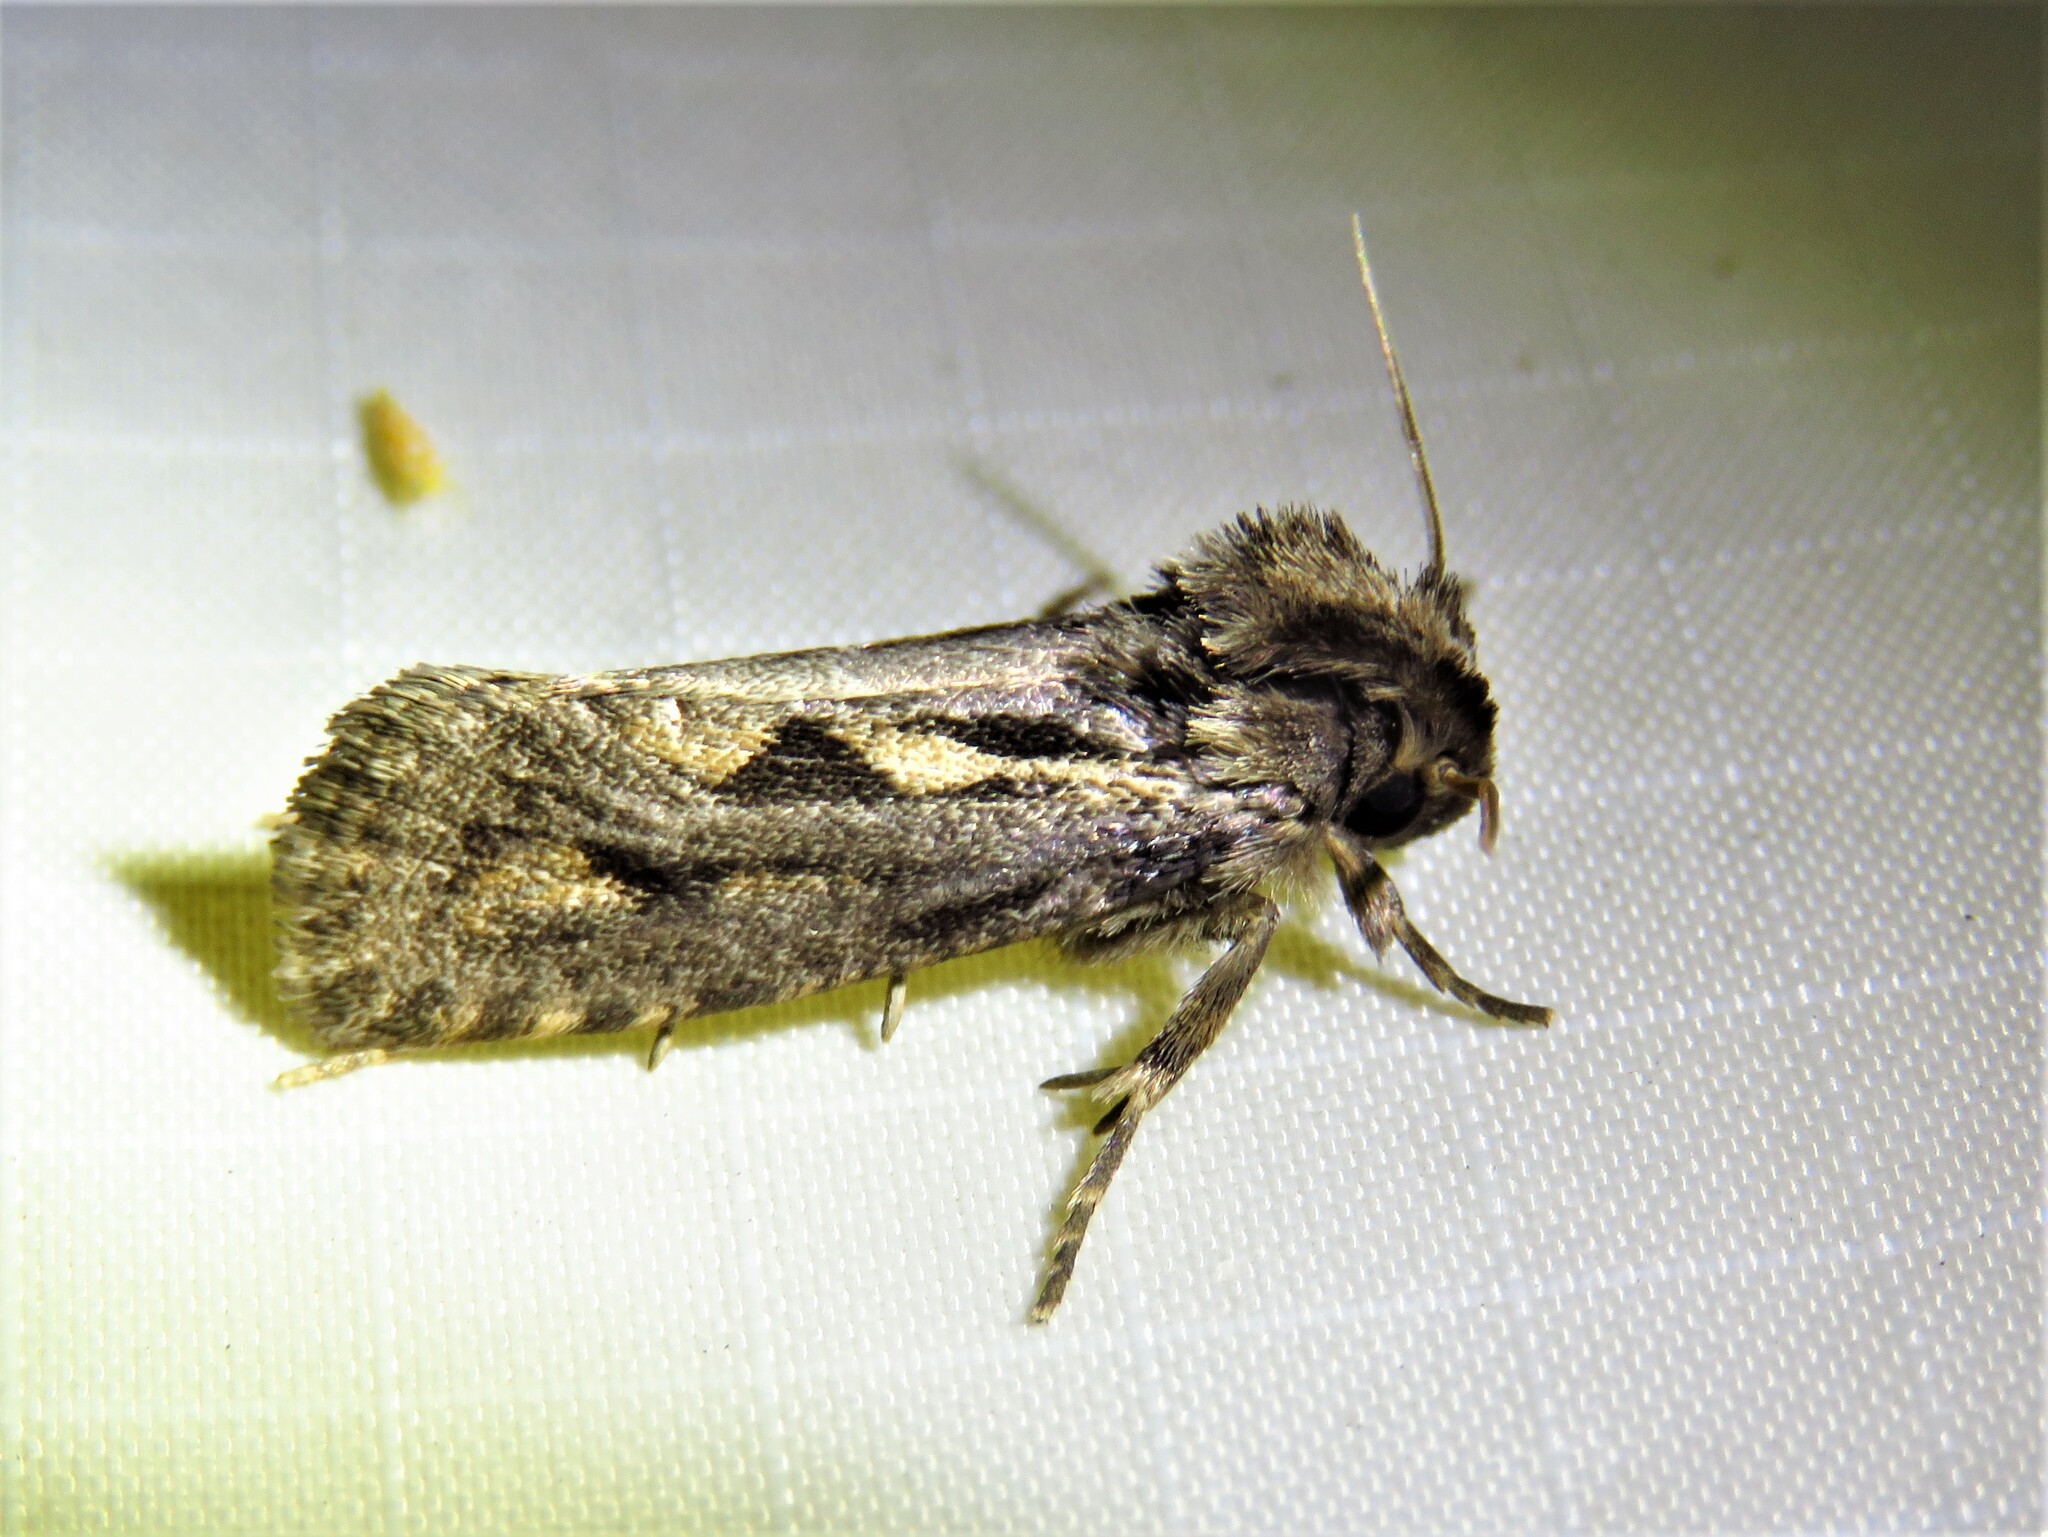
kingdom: Animalia
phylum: Arthropoda
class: Insecta
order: Lepidoptera
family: Tineidae
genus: Acrolophus
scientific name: Acrolophus popeanella
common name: Clemens' grass tubeworm moth
